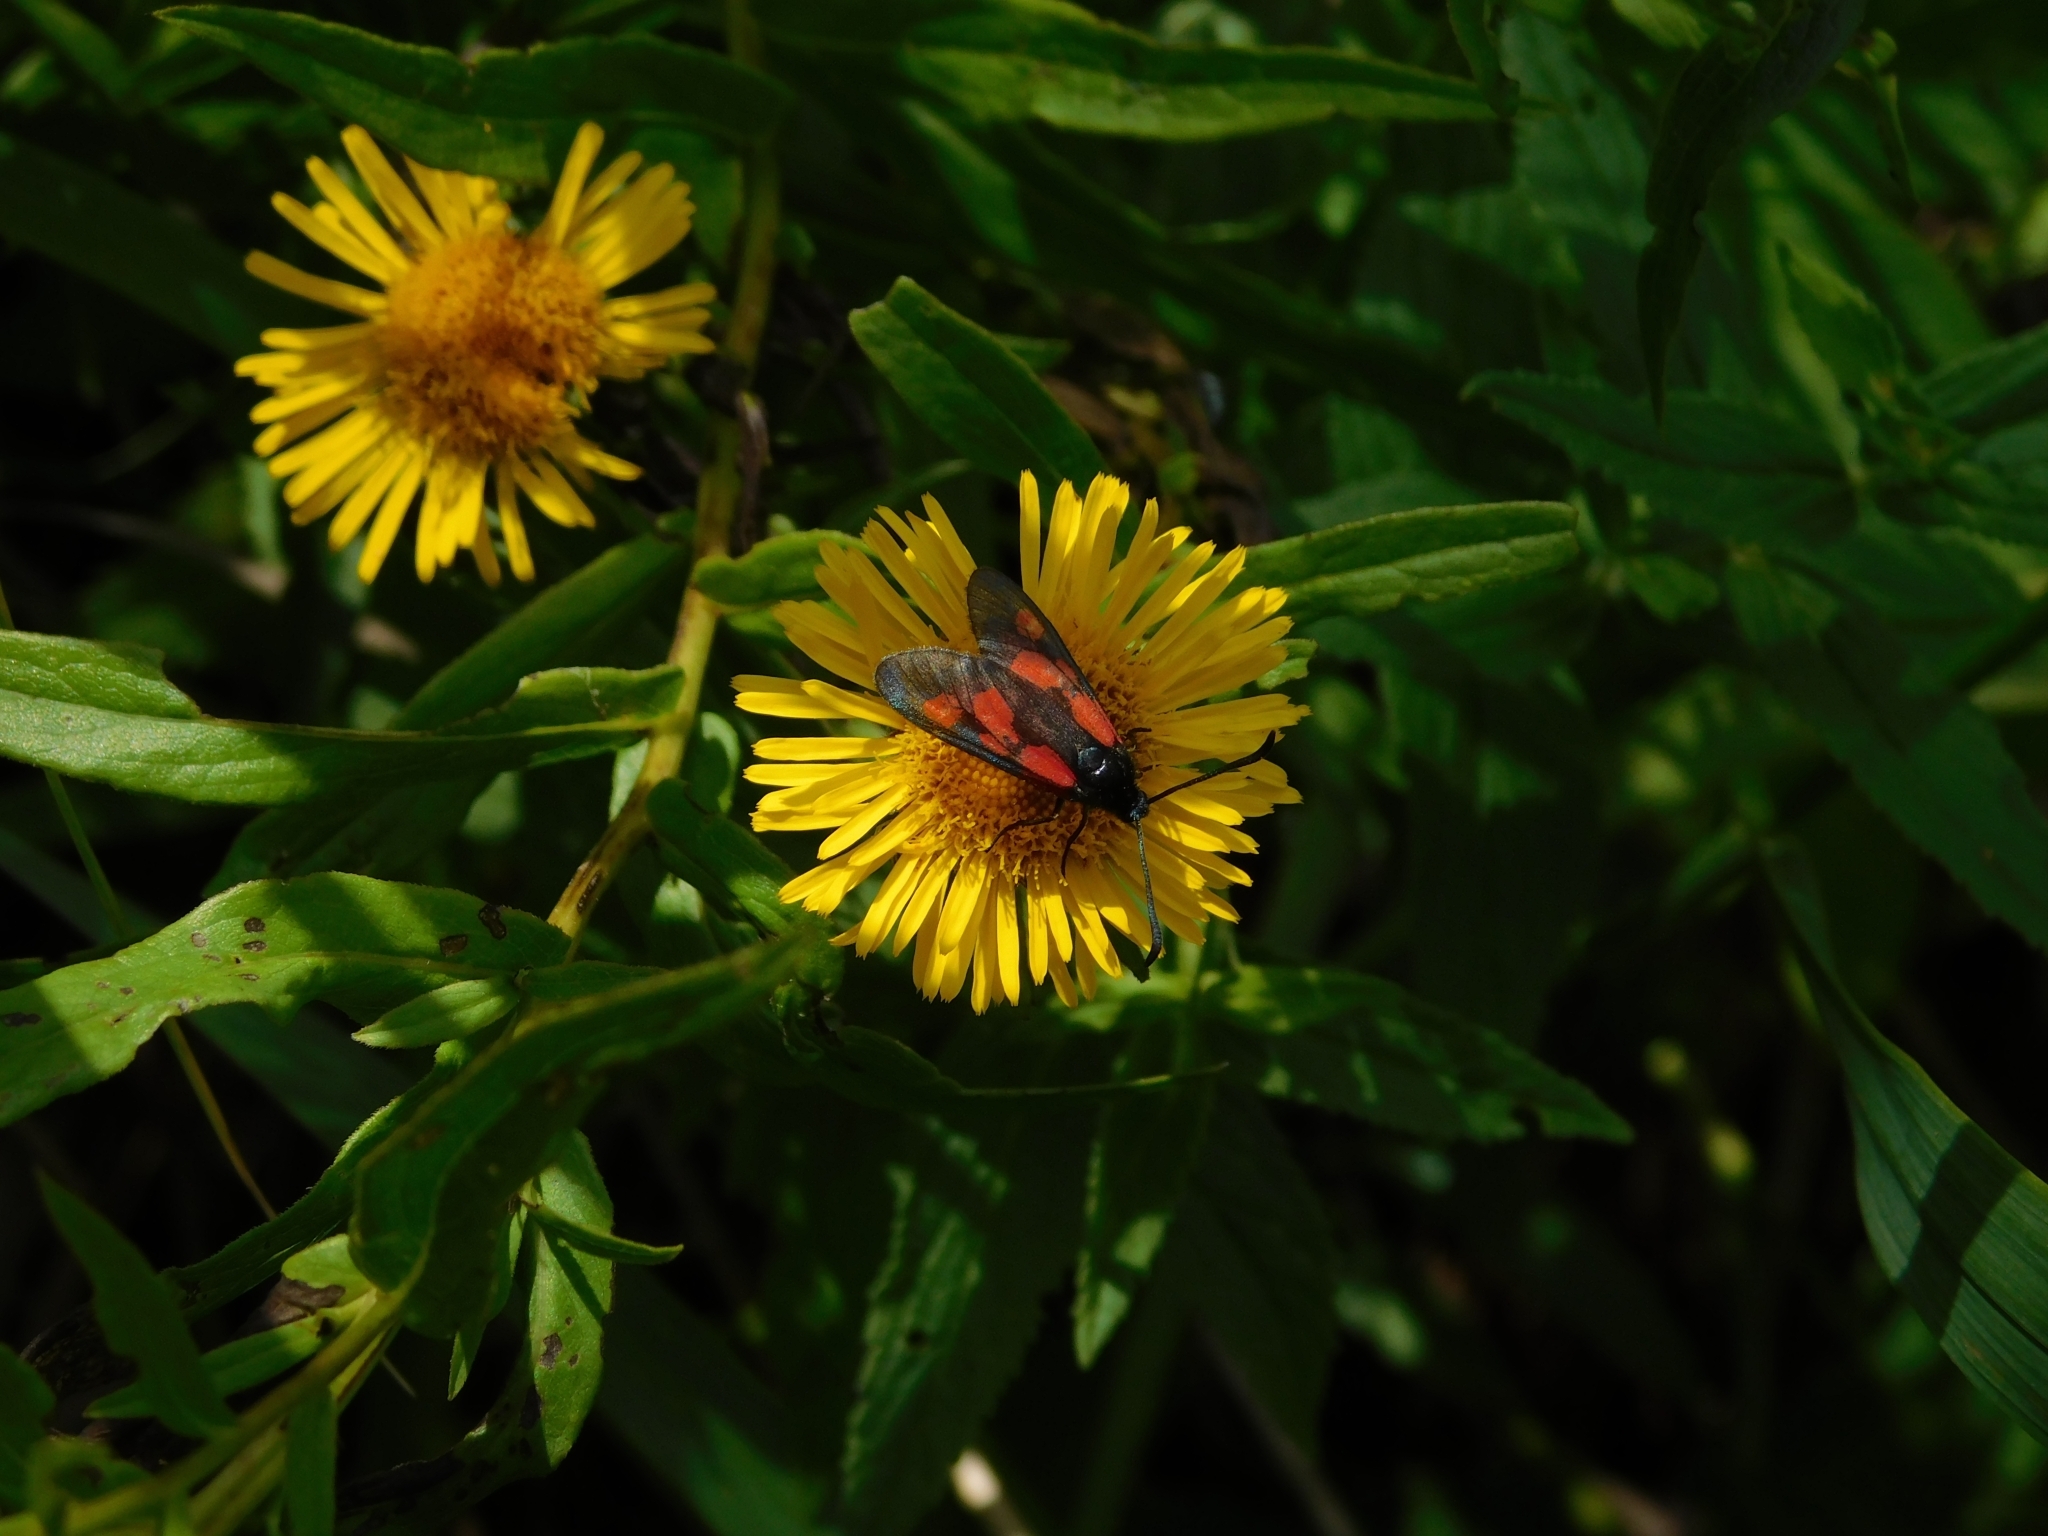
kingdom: Animalia
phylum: Arthropoda
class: Insecta
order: Lepidoptera
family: Zygaenidae
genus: Zygaena
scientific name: Zygaena viciae
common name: New forest burnet
